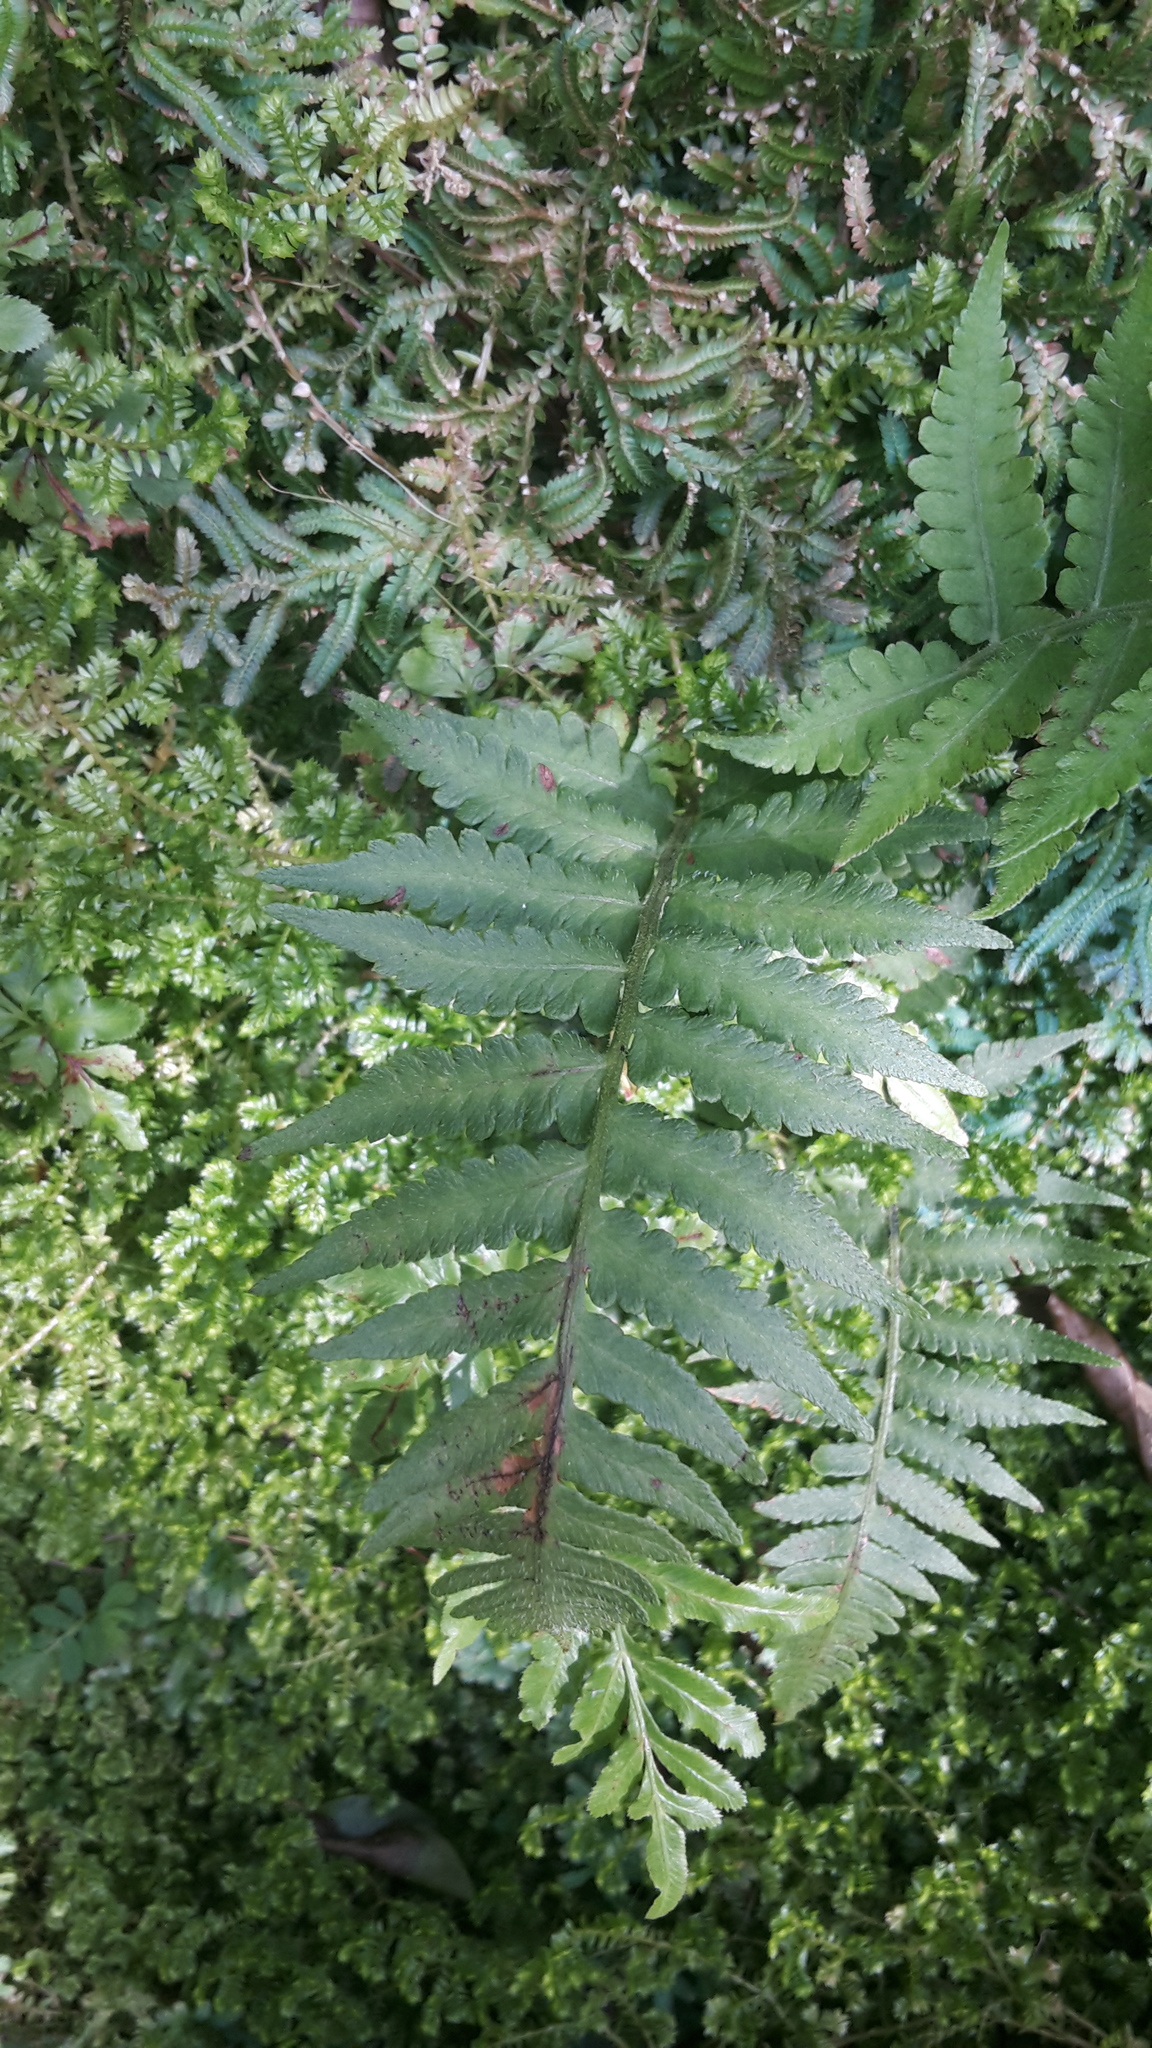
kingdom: Plantae
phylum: Tracheophyta
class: Polypodiopsida
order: Polypodiales
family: Athyriaceae
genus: Deparia
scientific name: Deparia petersenii
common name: Japanese false spleenwort
